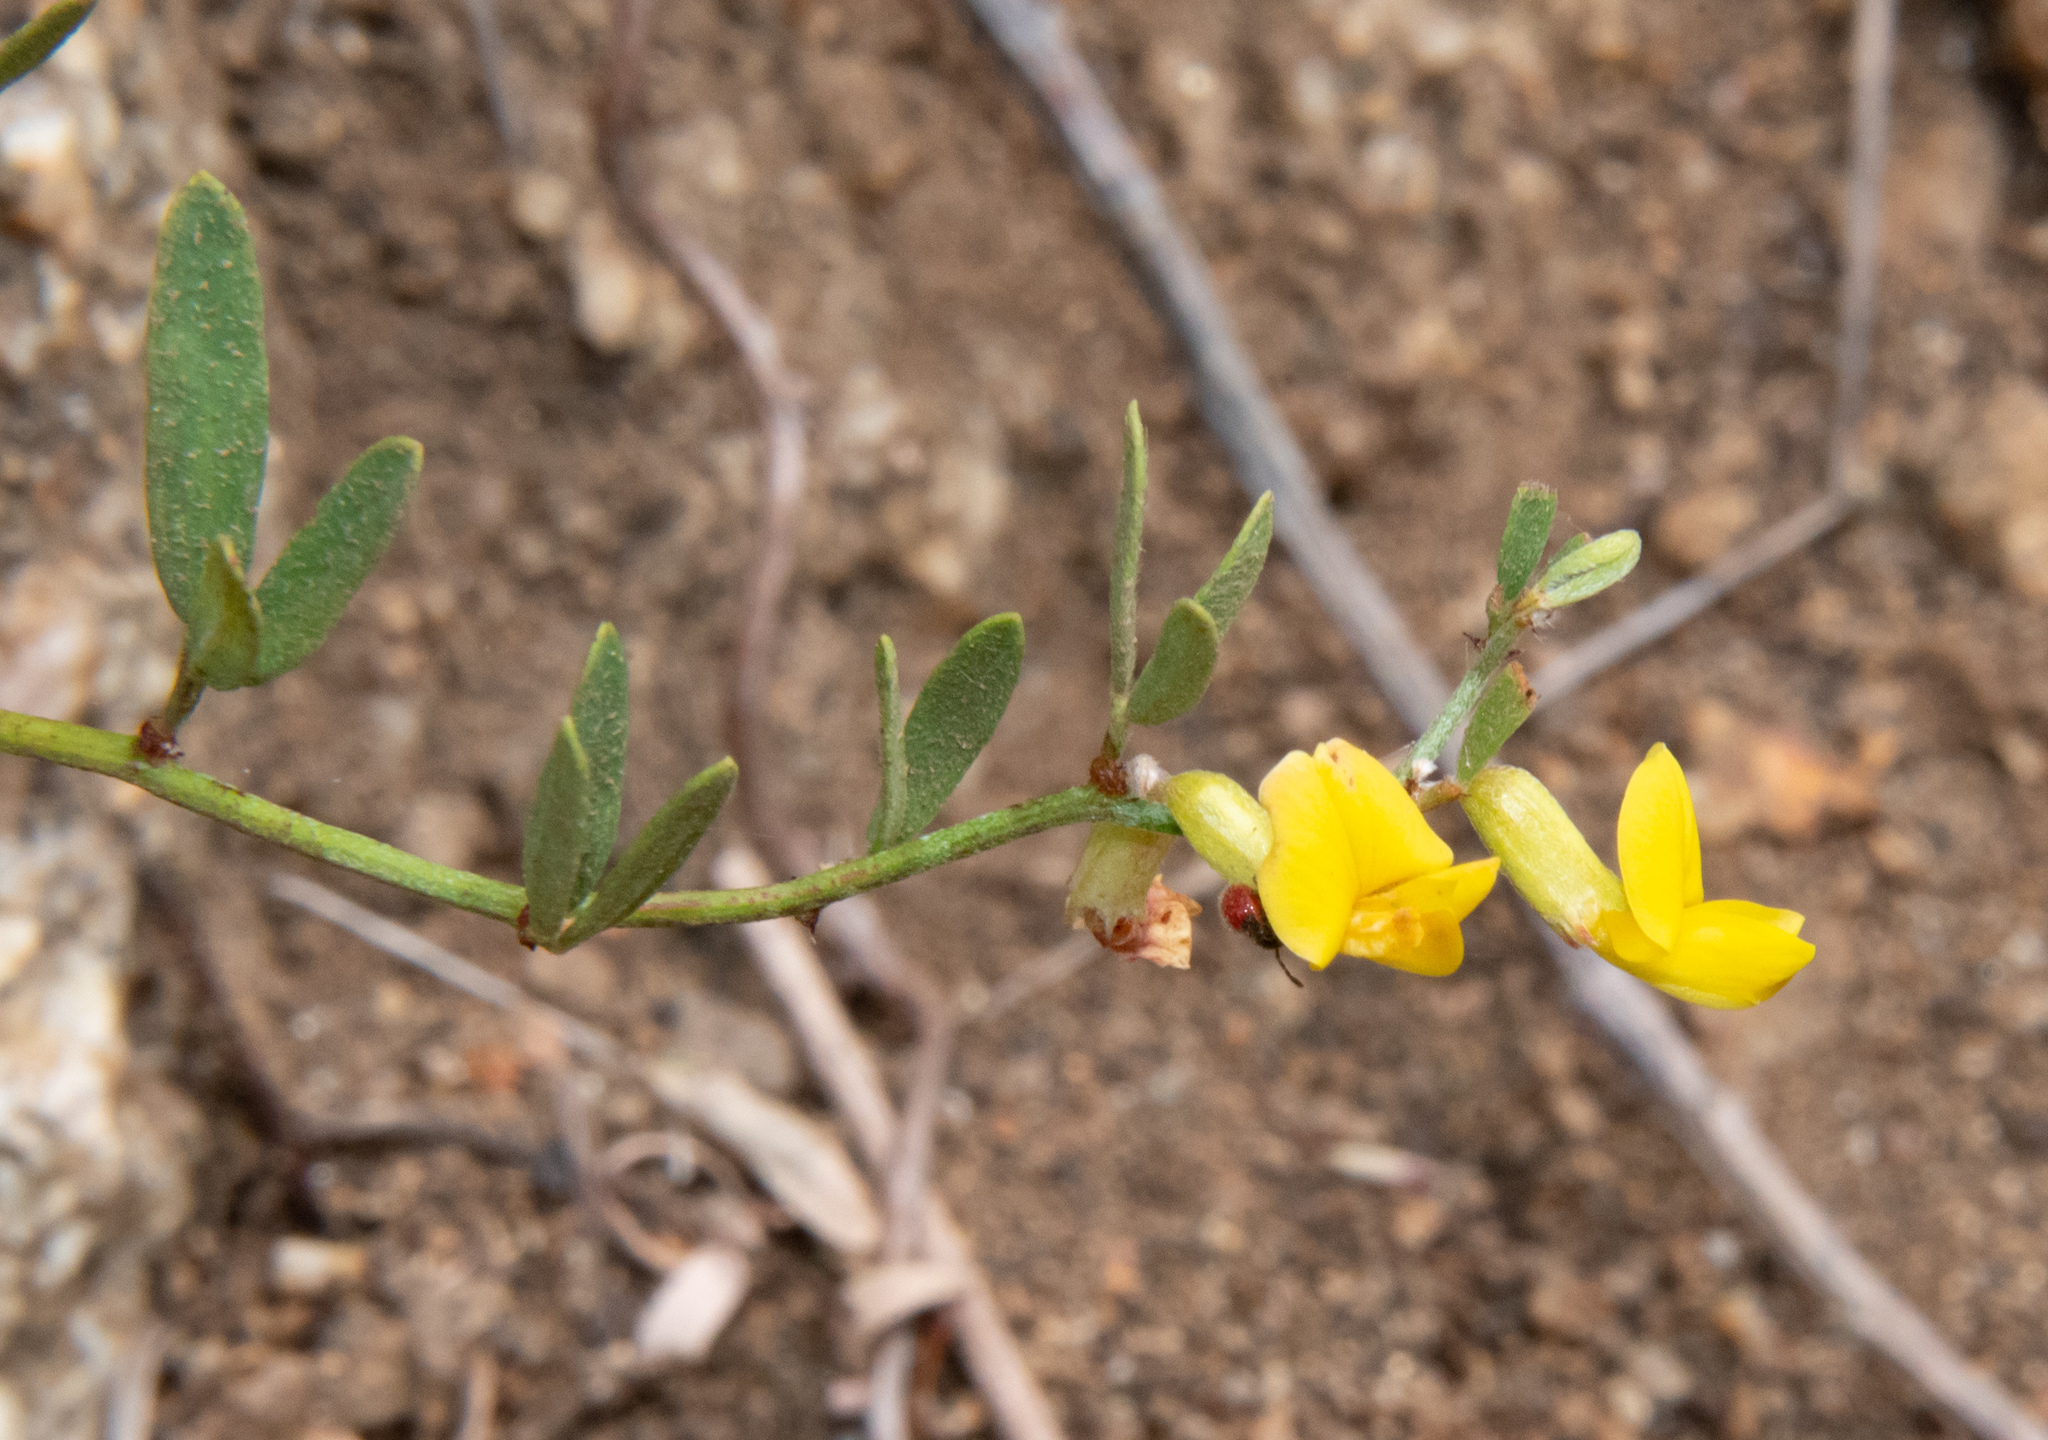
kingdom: Plantae
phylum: Tracheophyta
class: Magnoliopsida
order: Fabales
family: Fabaceae
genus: Acmispon
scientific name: Acmispon glaber
